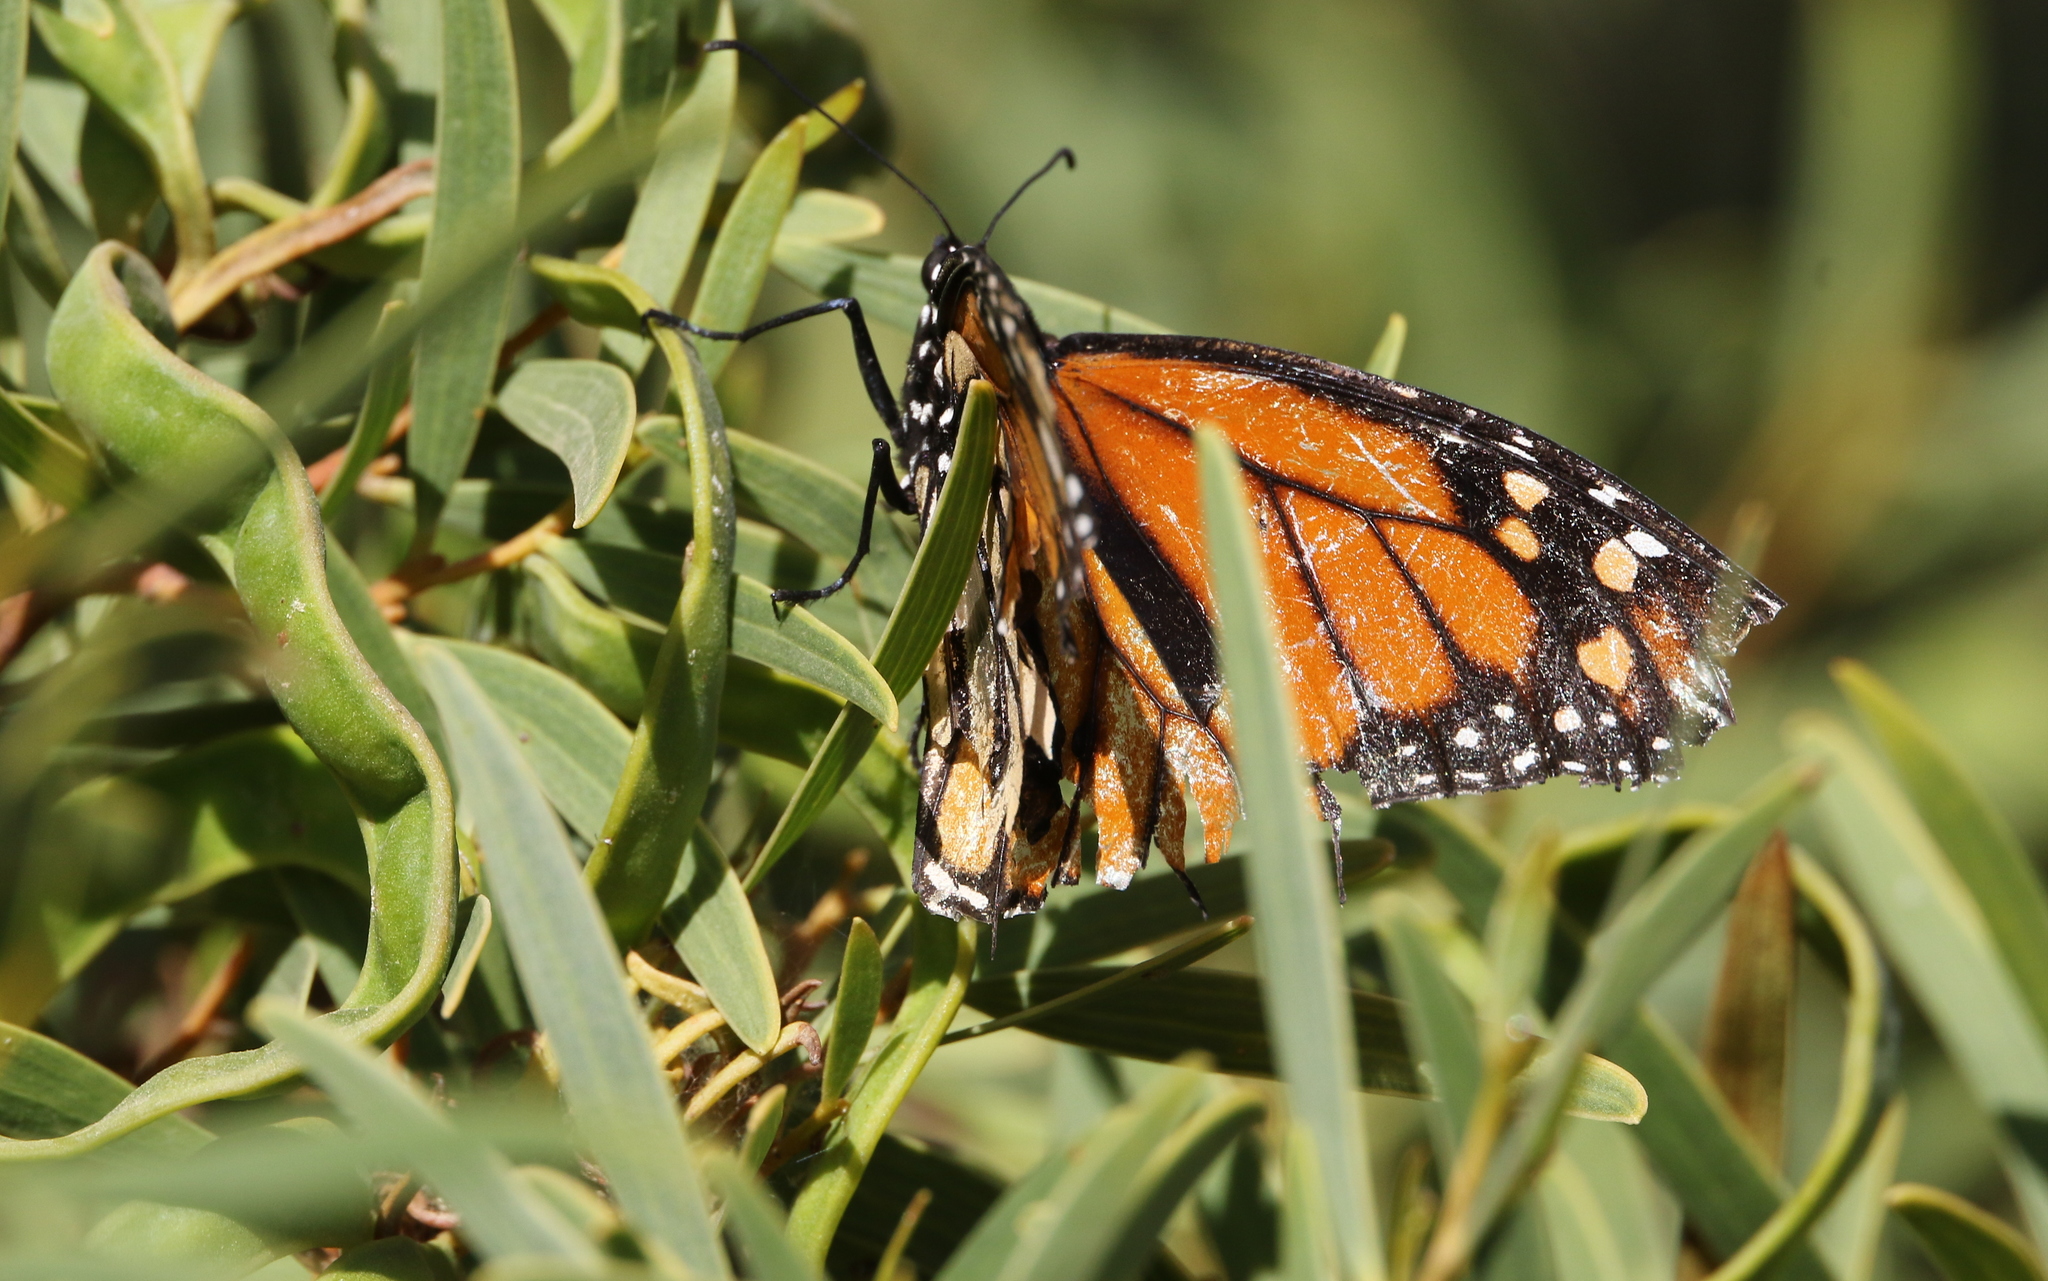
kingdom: Animalia
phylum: Arthropoda
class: Insecta
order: Lepidoptera
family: Nymphalidae
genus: Danaus
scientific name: Danaus plexippus
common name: Monarch
